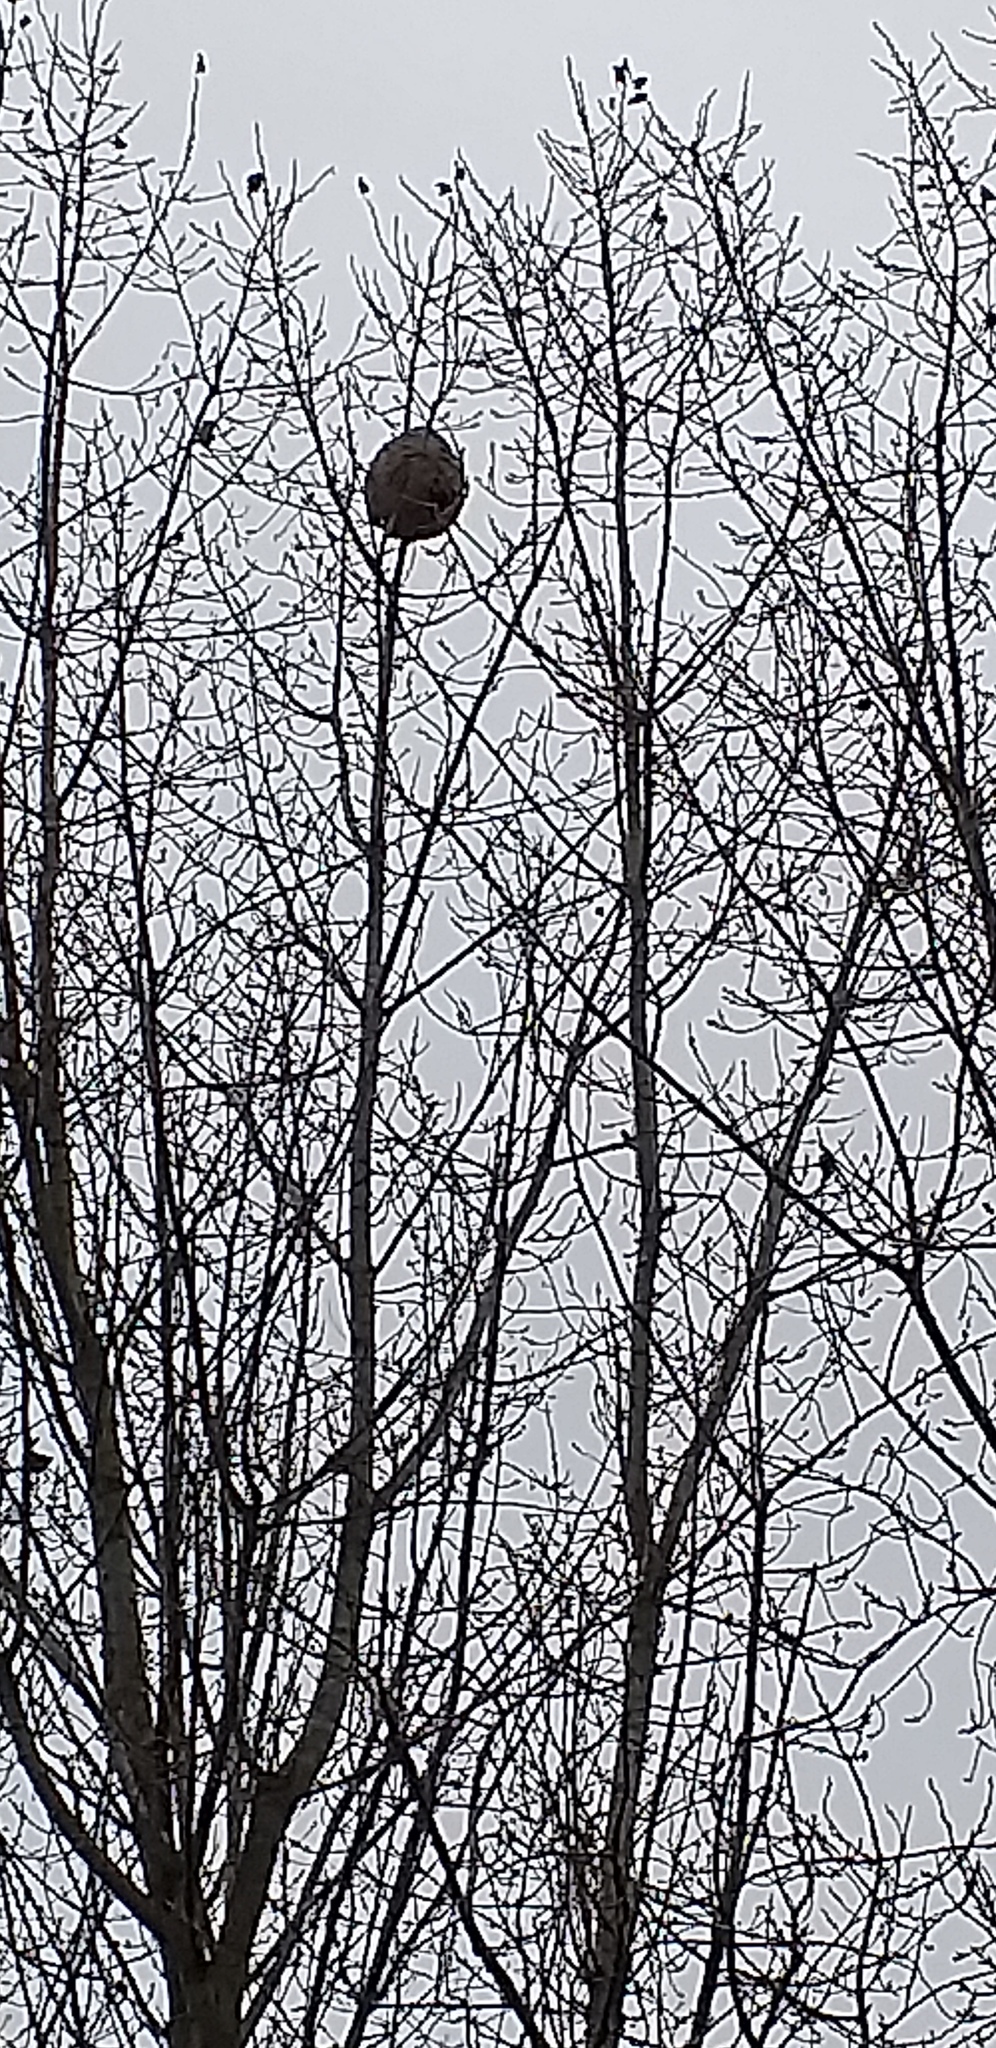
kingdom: Animalia
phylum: Arthropoda
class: Insecta
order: Hymenoptera
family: Vespidae
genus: Vespa
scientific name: Vespa velutina
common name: Asian hornet
